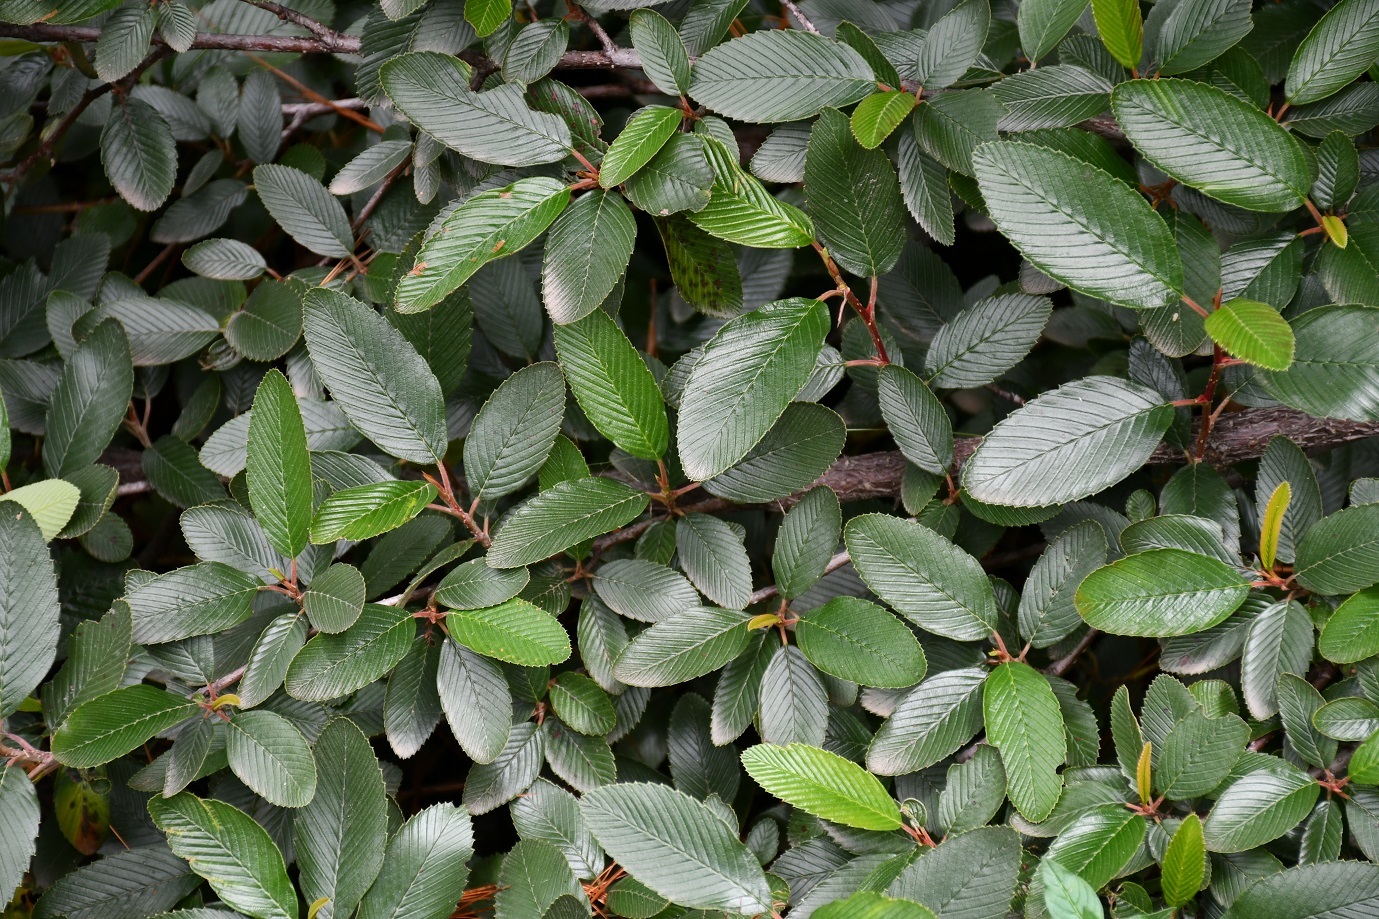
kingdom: Plantae
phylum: Tracheophyta
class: Magnoliopsida
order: Rosales
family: Rosaceae
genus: Cercocarpus
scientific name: Cercocarpus macrophyllus
